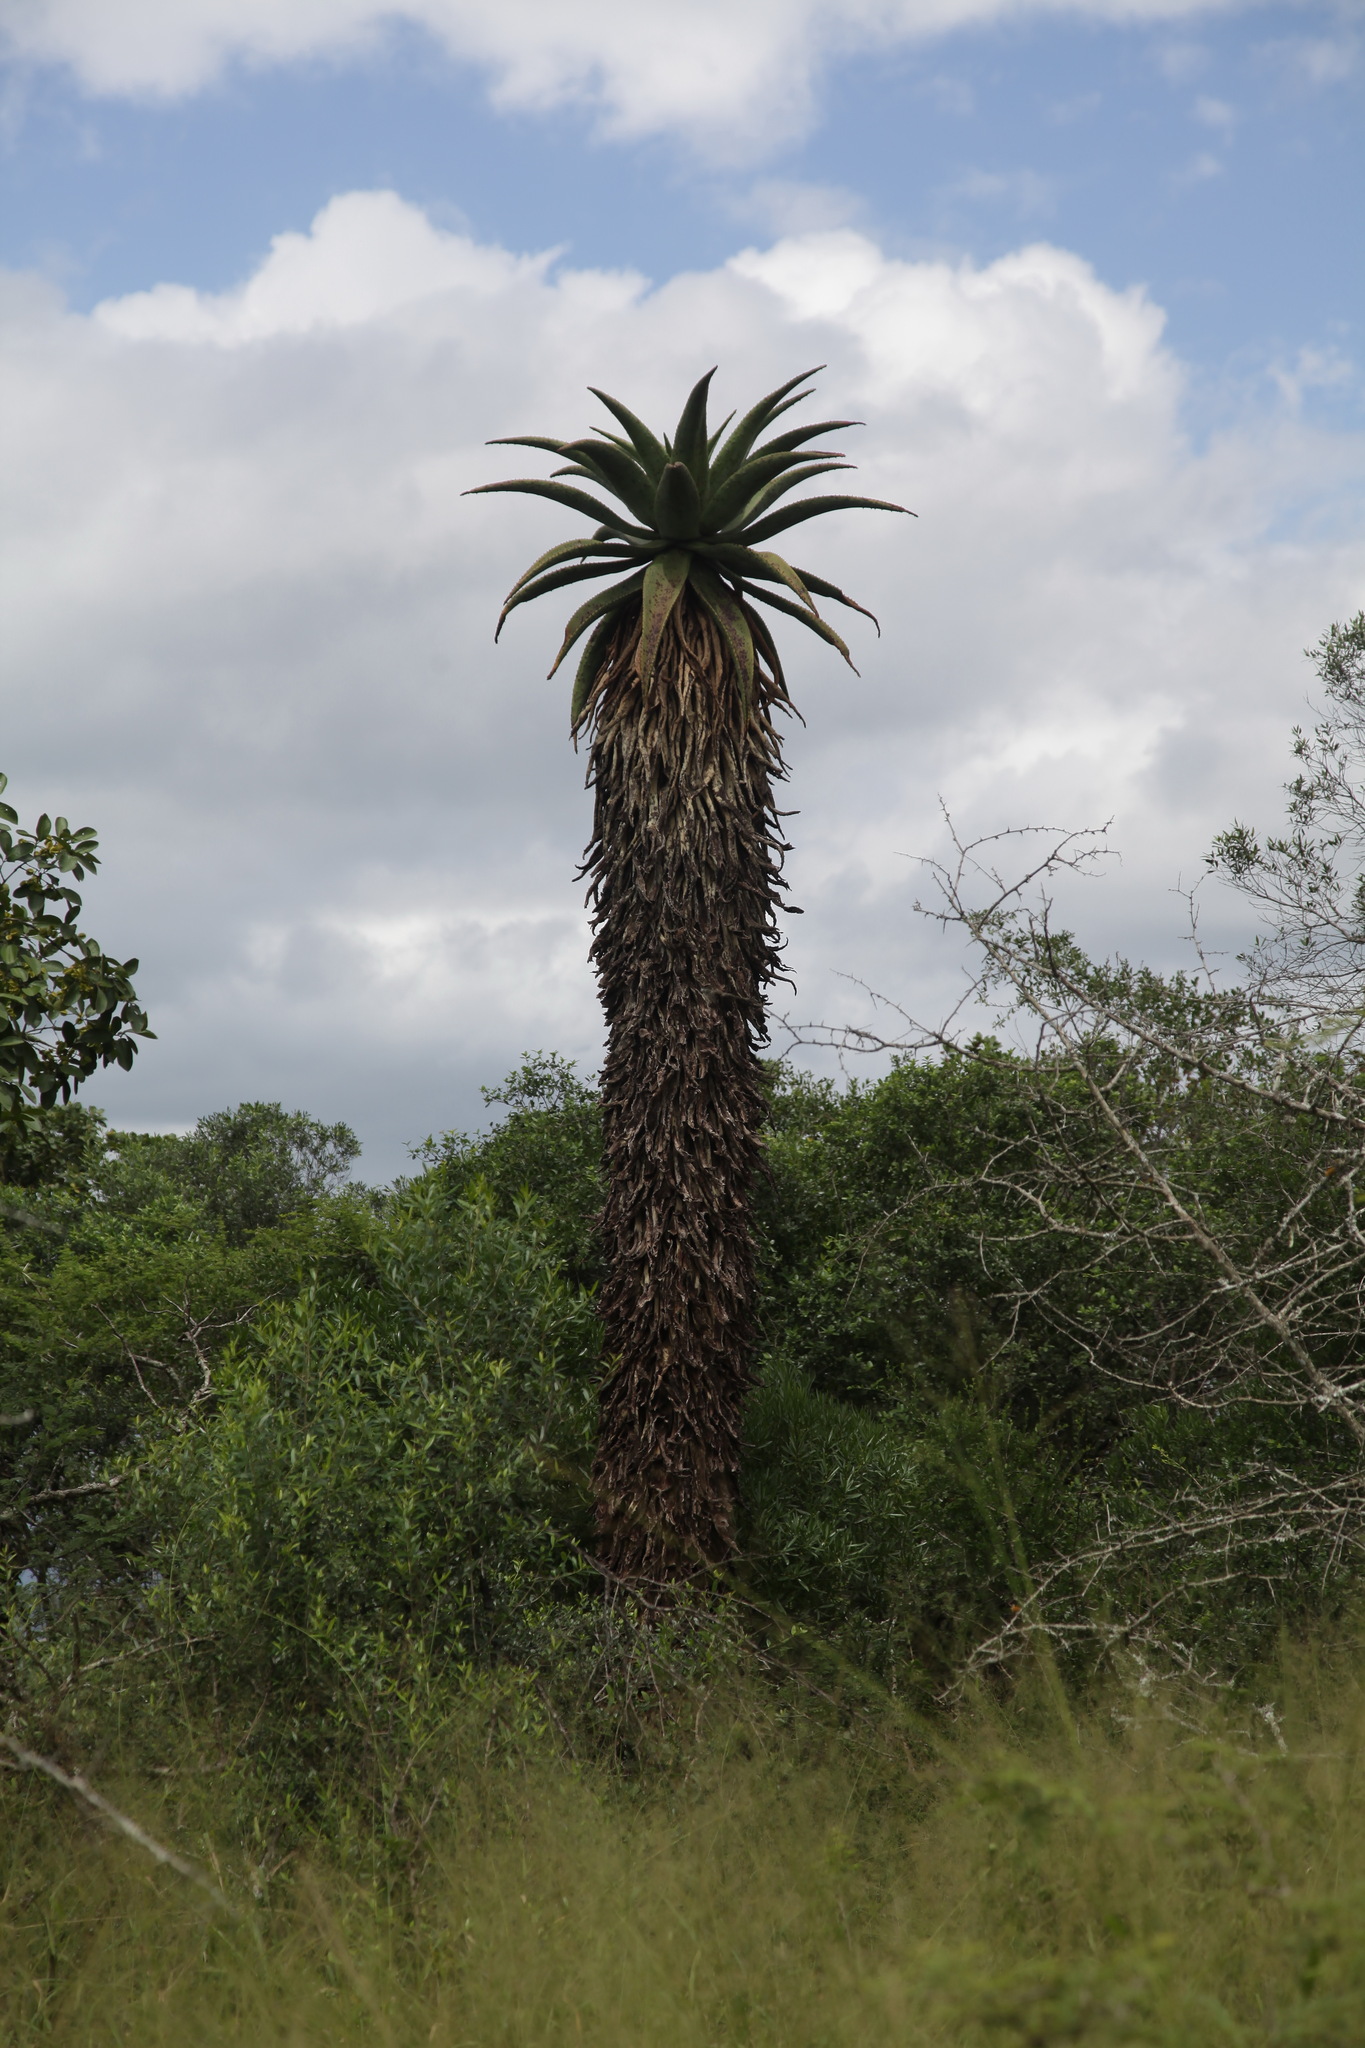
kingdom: Plantae
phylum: Tracheophyta
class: Liliopsida
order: Asparagales
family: Asphodelaceae
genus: Aloe
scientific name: Aloe marlothii
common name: Flat-flowered aloe
